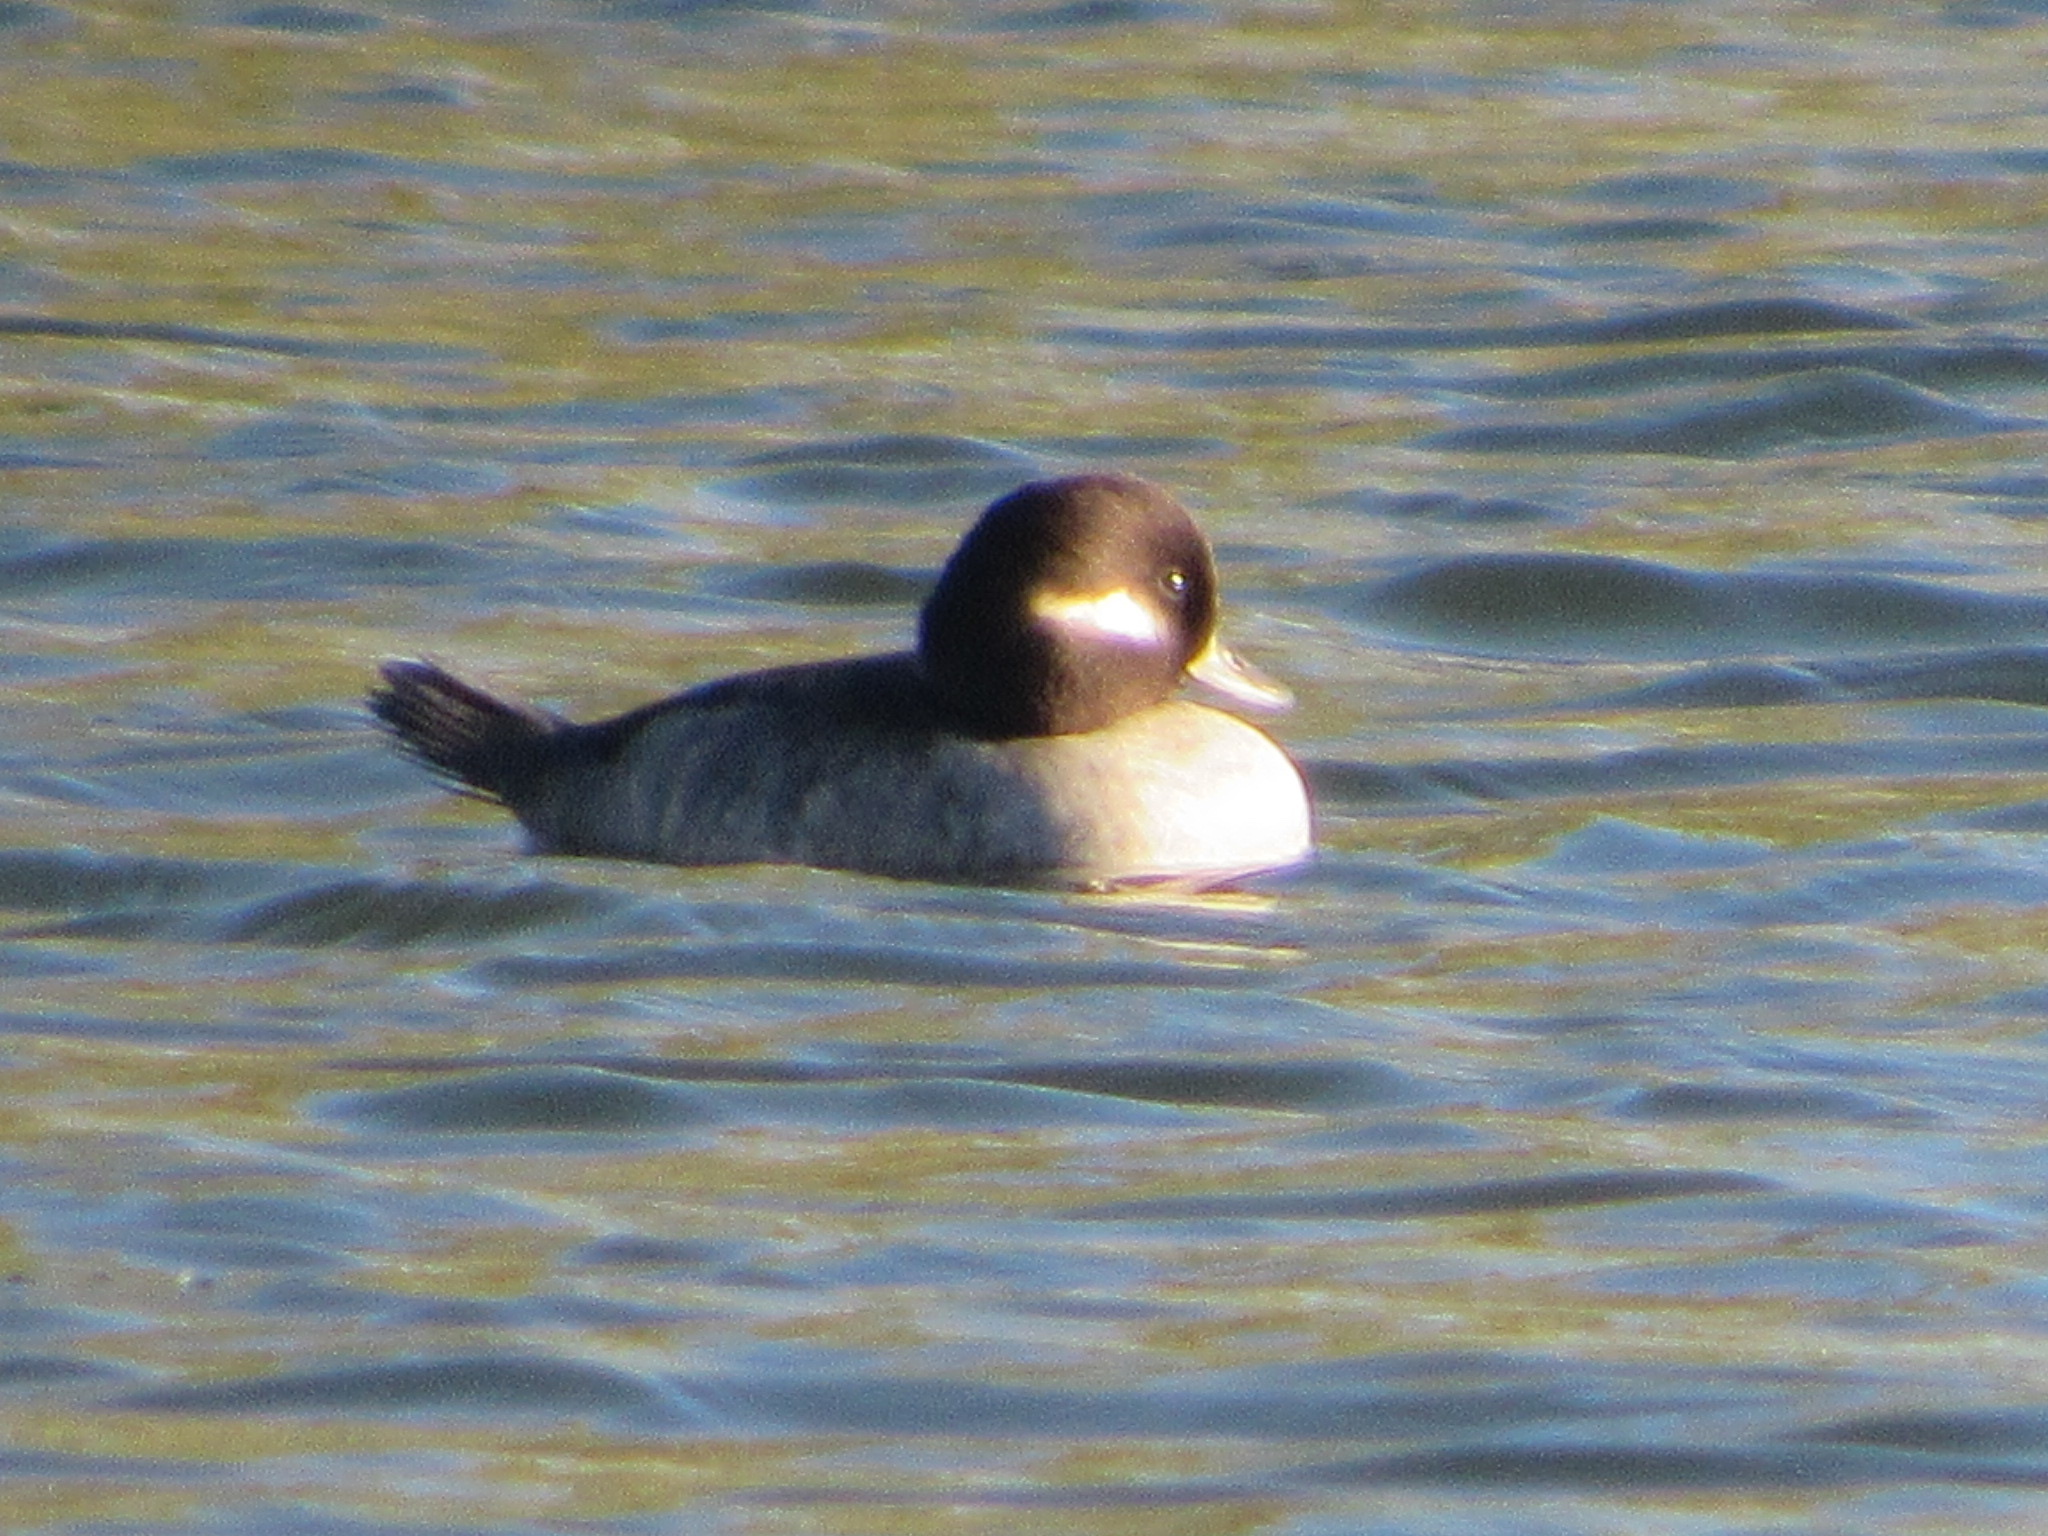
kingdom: Animalia
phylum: Chordata
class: Aves
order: Anseriformes
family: Anatidae
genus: Bucephala
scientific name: Bucephala albeola
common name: Bufflehead
